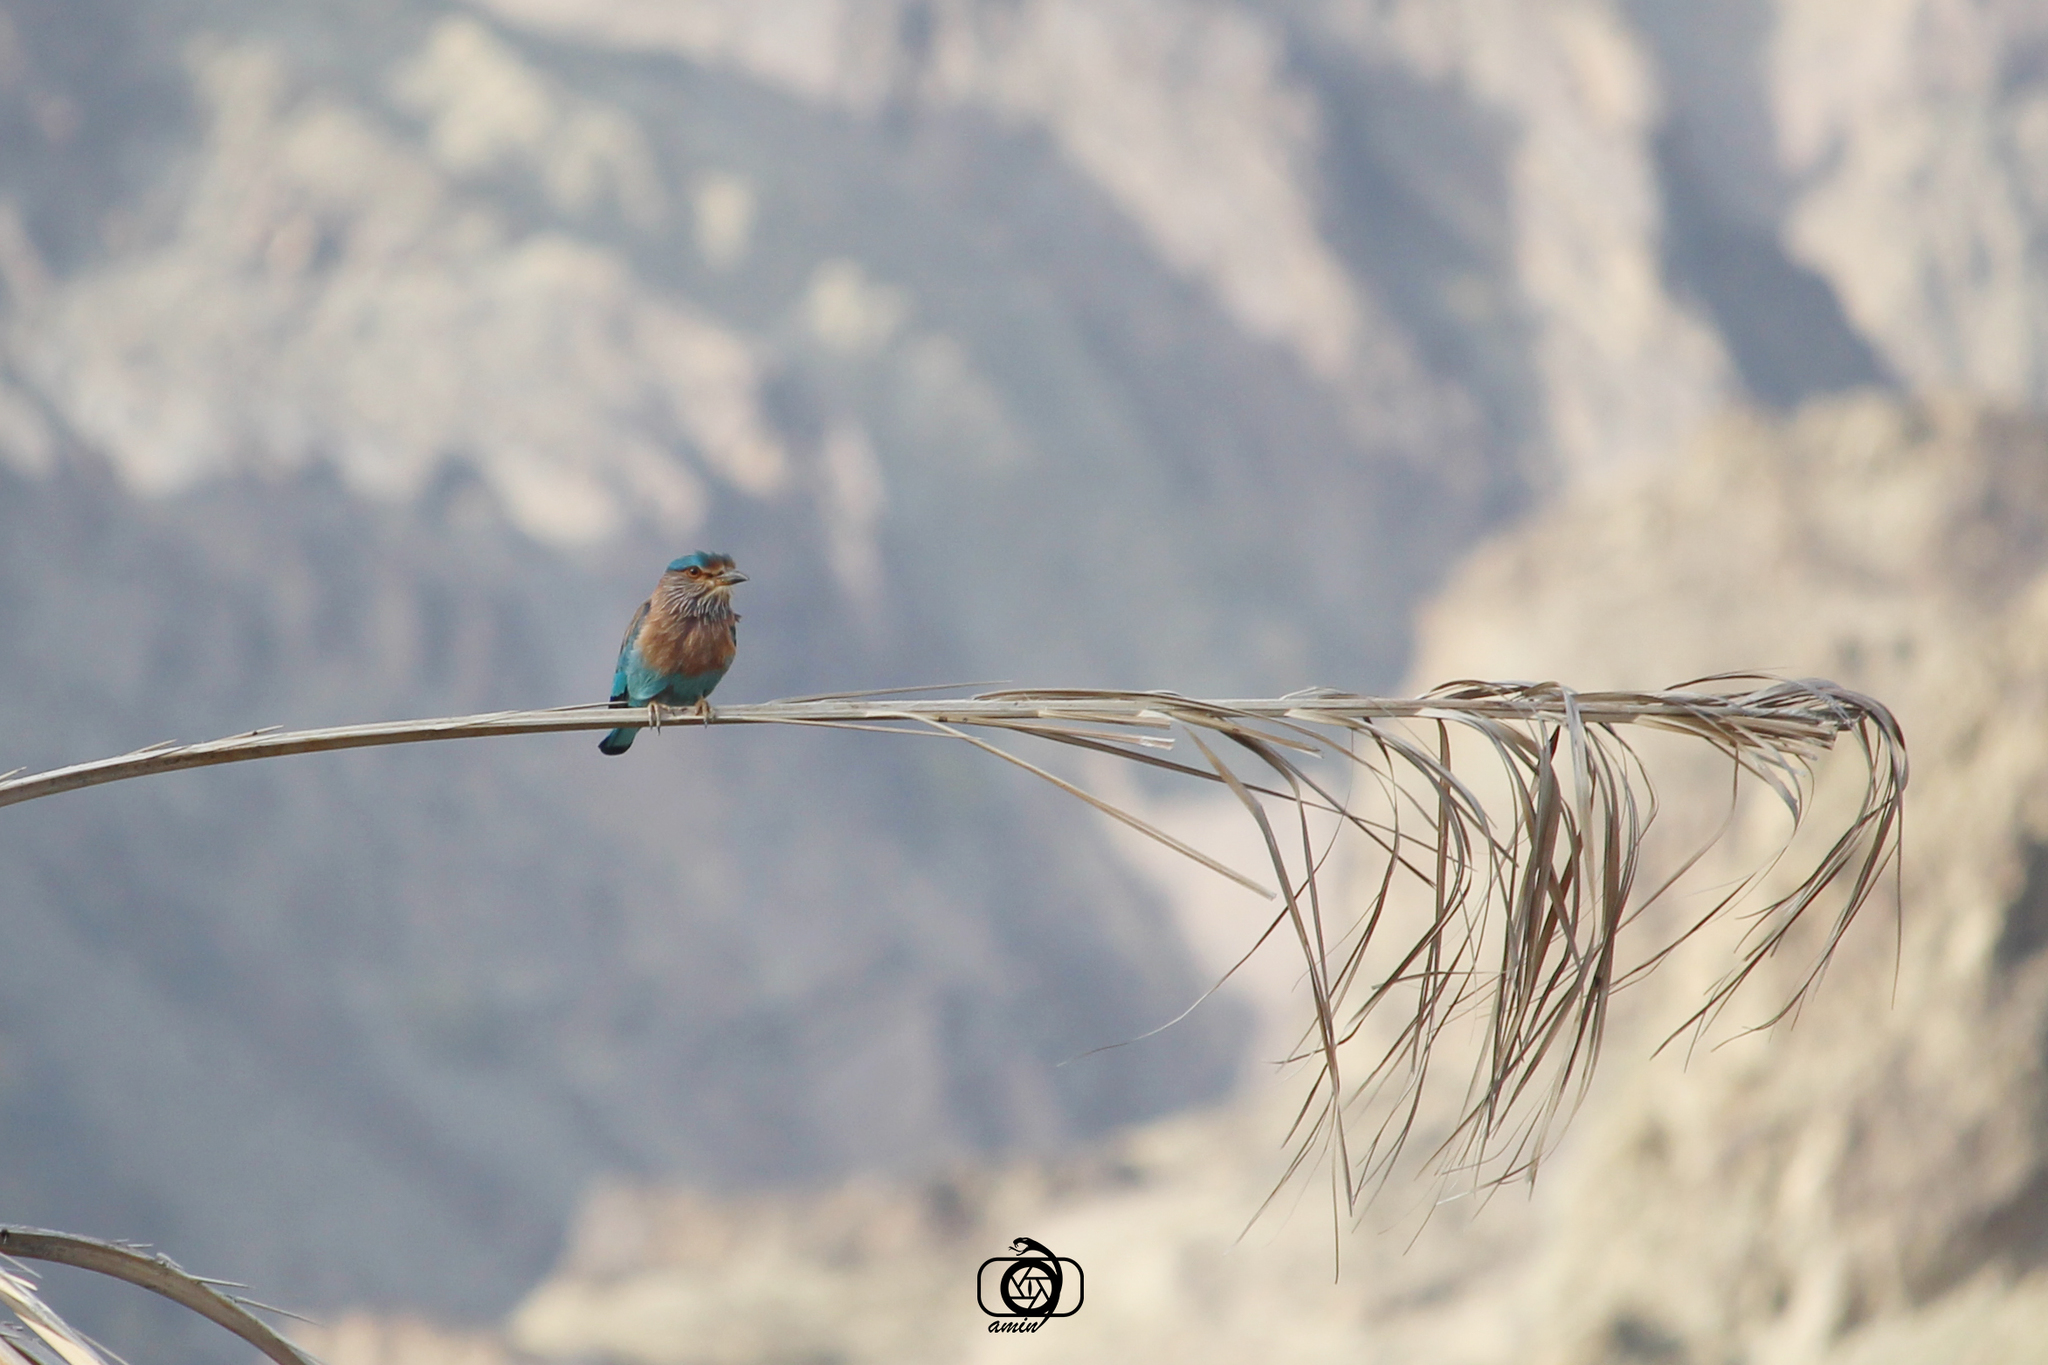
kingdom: Animalia
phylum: Chordata
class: Aves
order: Coraciiformes
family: Coraciidae
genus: Coracias
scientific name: Coracias benghalensis
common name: Indian roller
